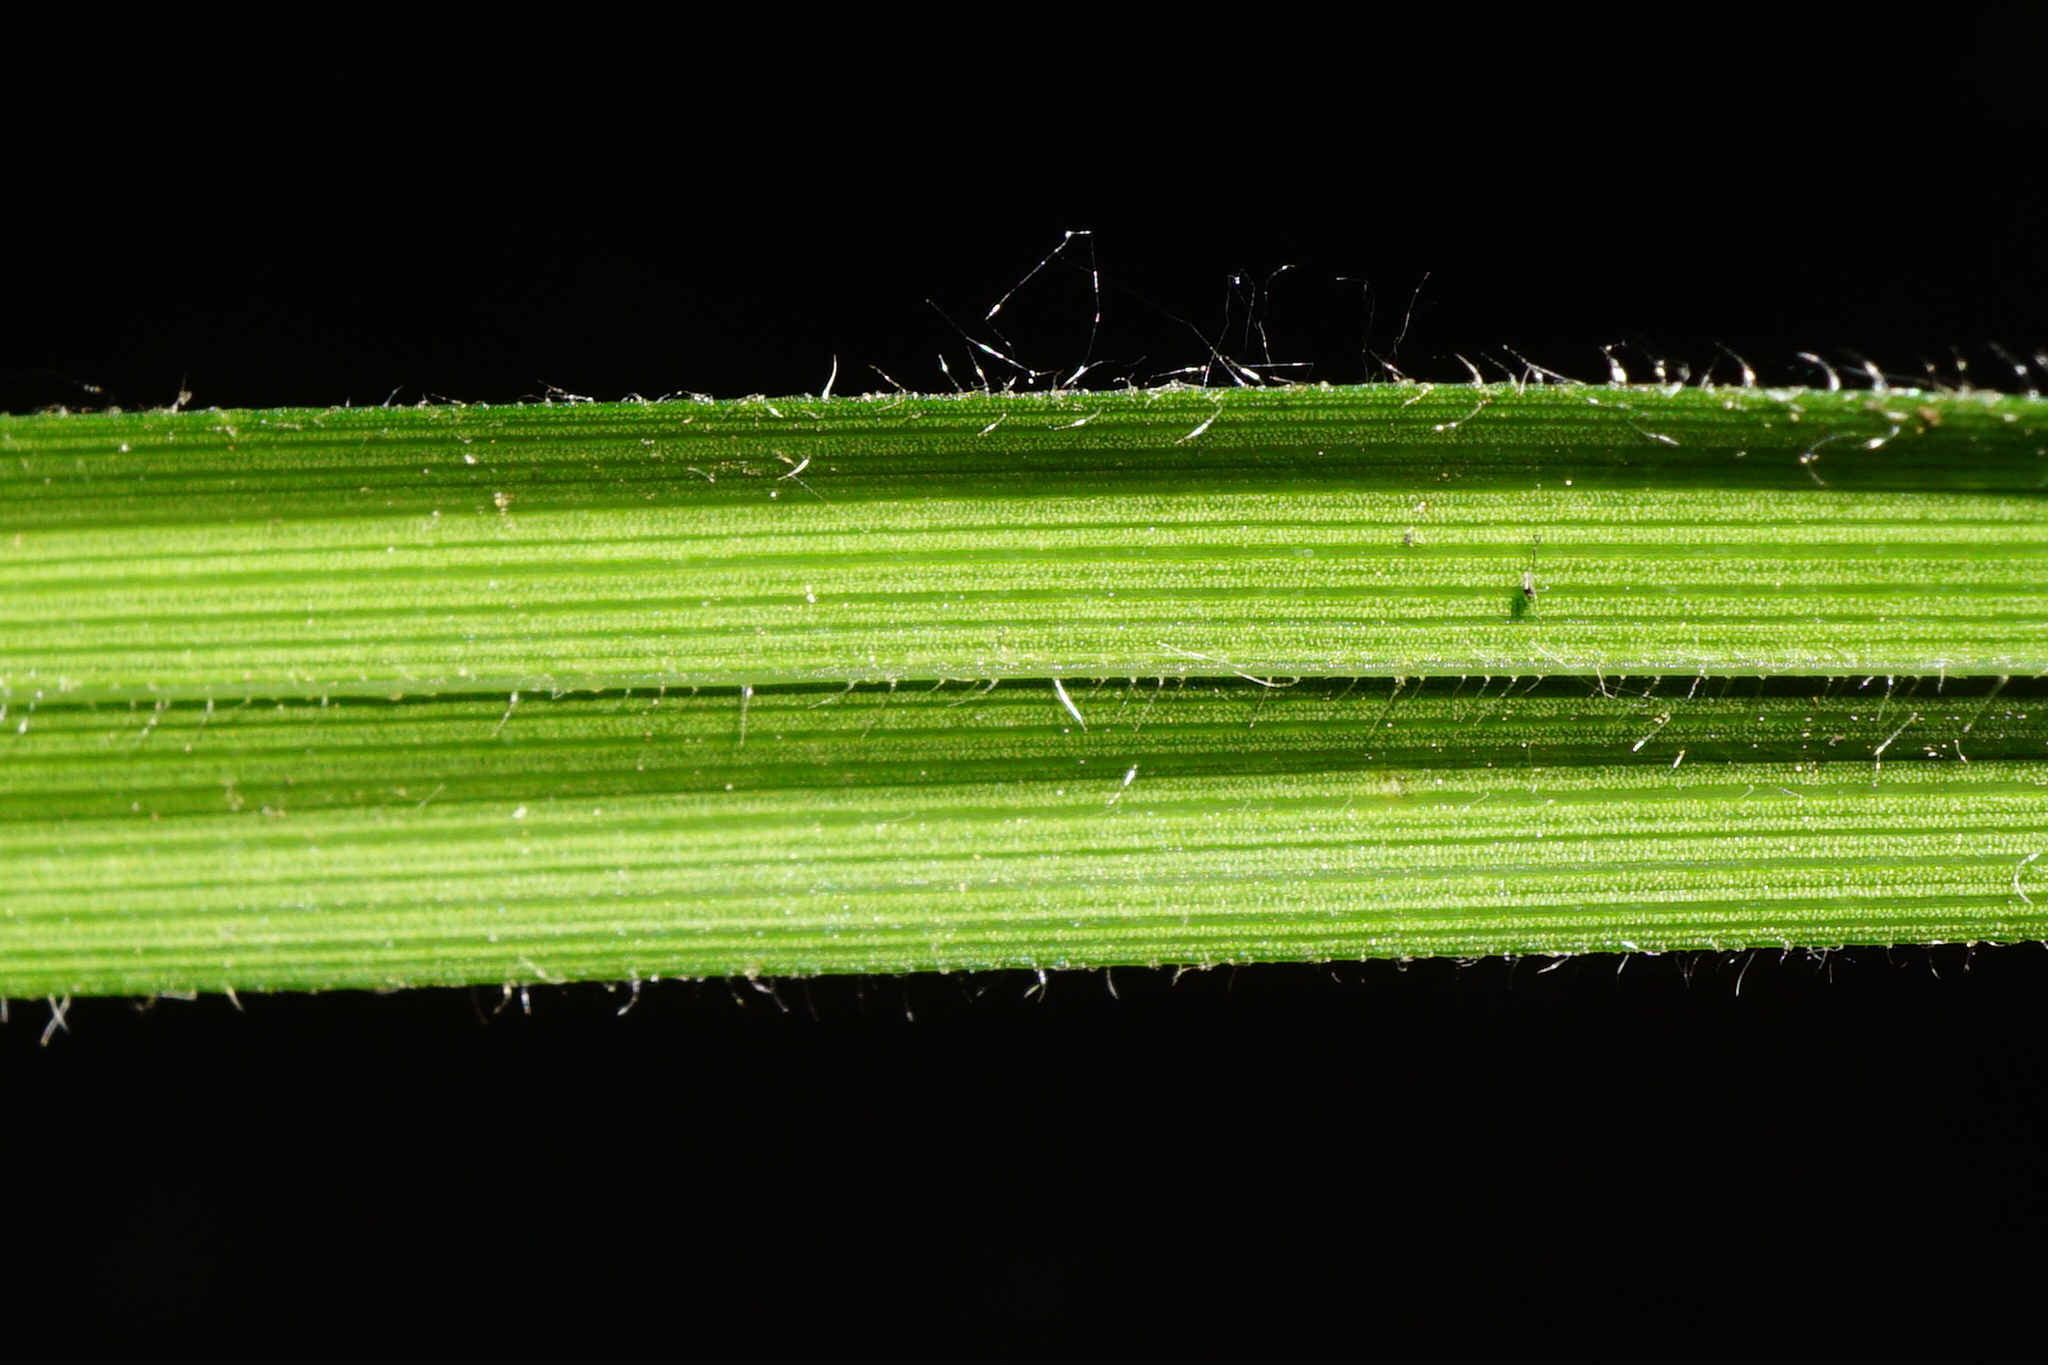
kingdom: Plantae
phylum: Tracheophyta
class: Liliopsida
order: Poales
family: Cyperaceae
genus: Carex
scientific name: Carex pilosa
